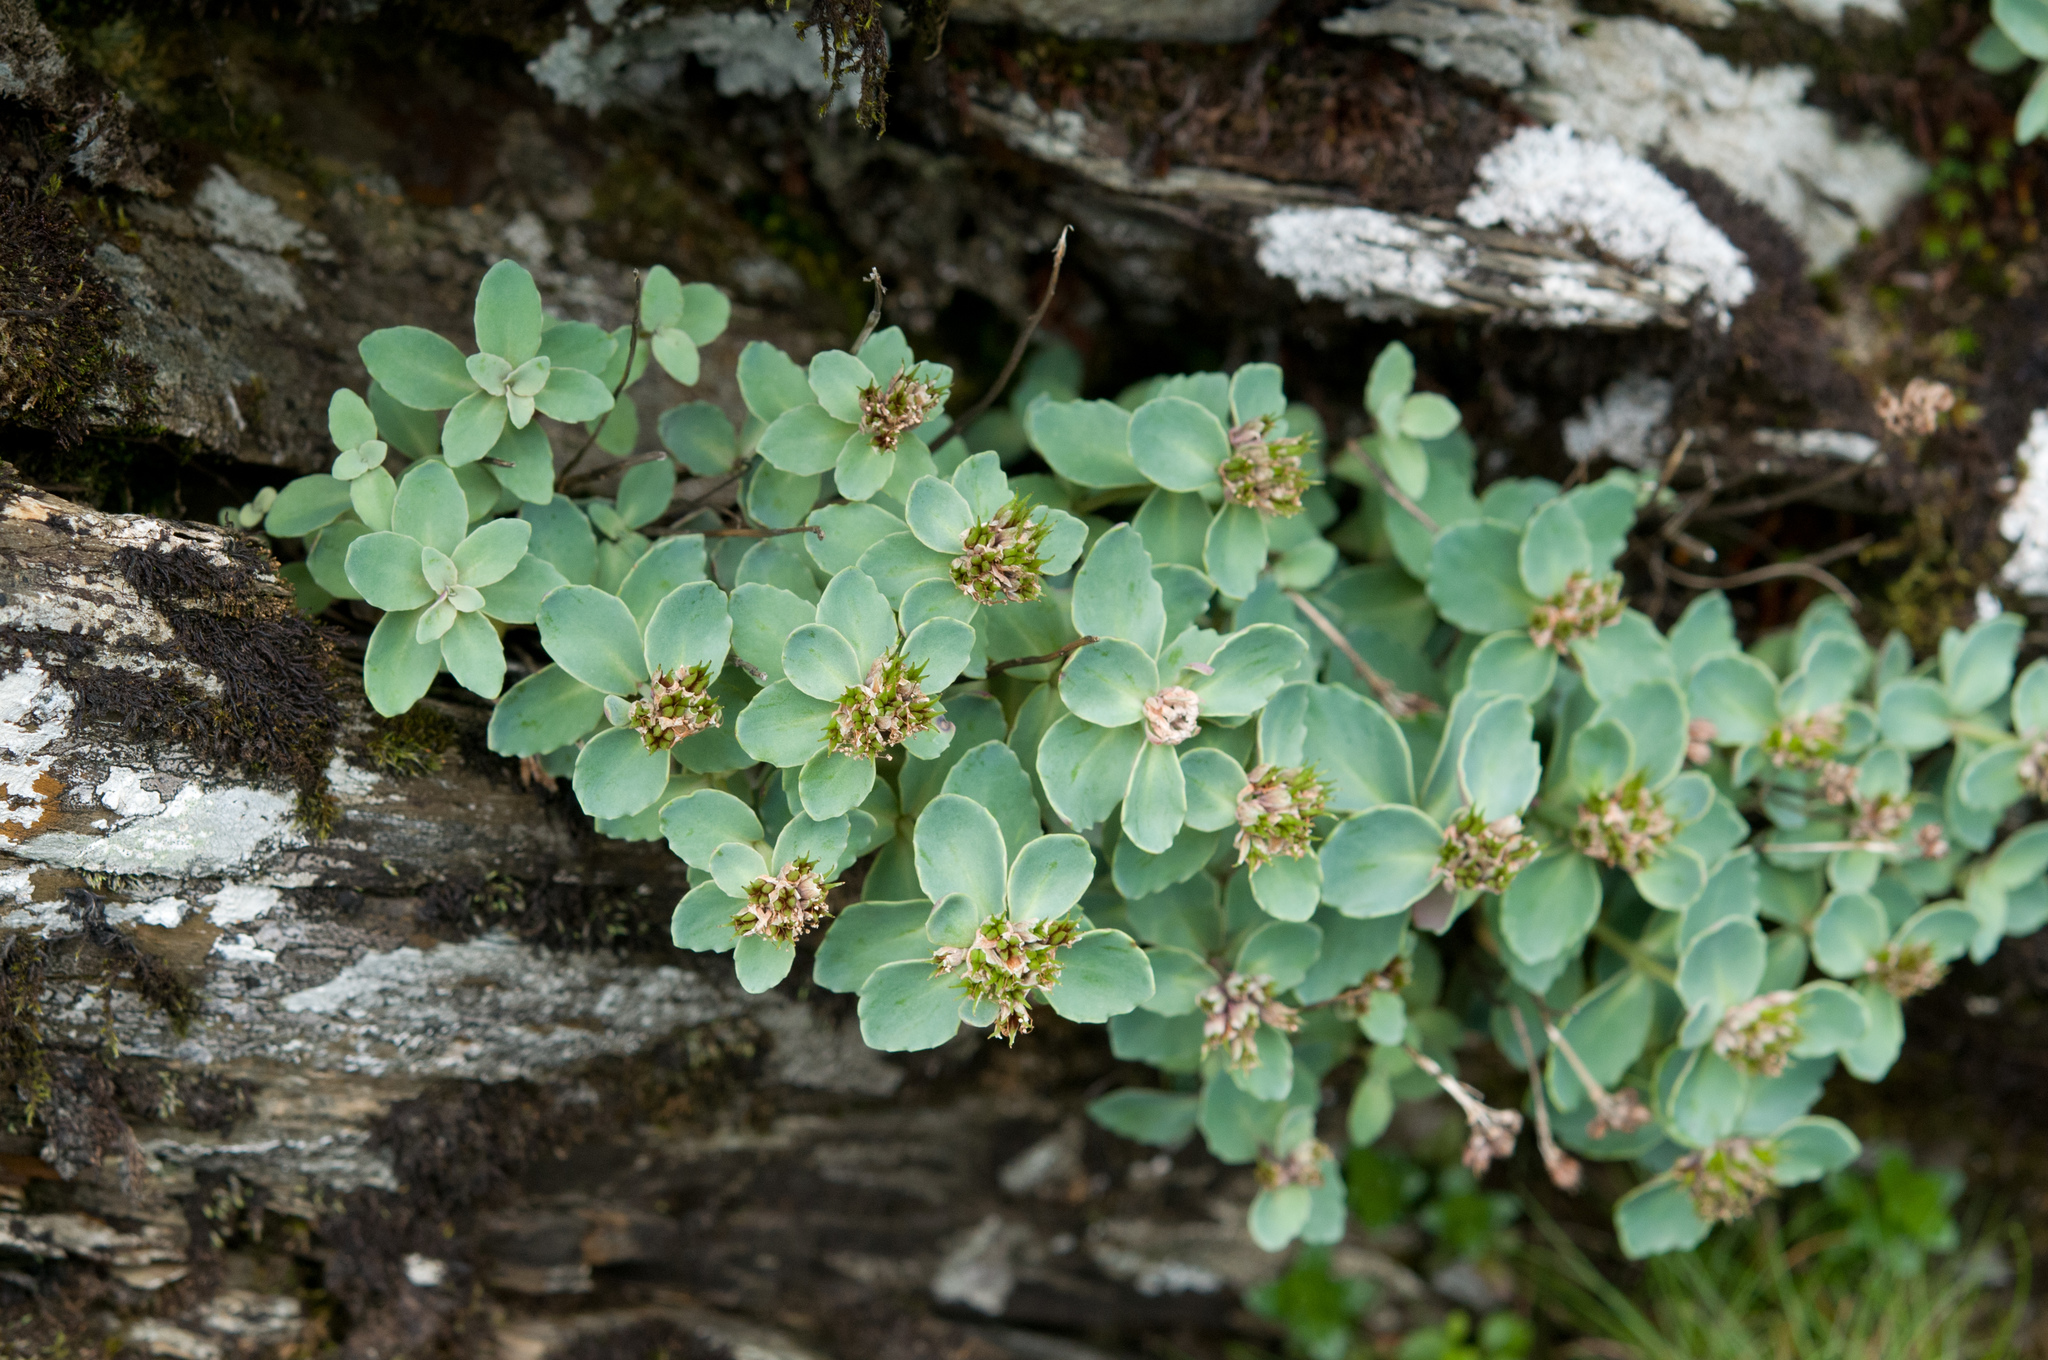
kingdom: Plantae
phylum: Tracheophyta
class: Magnoliopsida
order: Saxifragales
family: Crassulaceae
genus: Phedimus
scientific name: Phedimus subcapitatus
